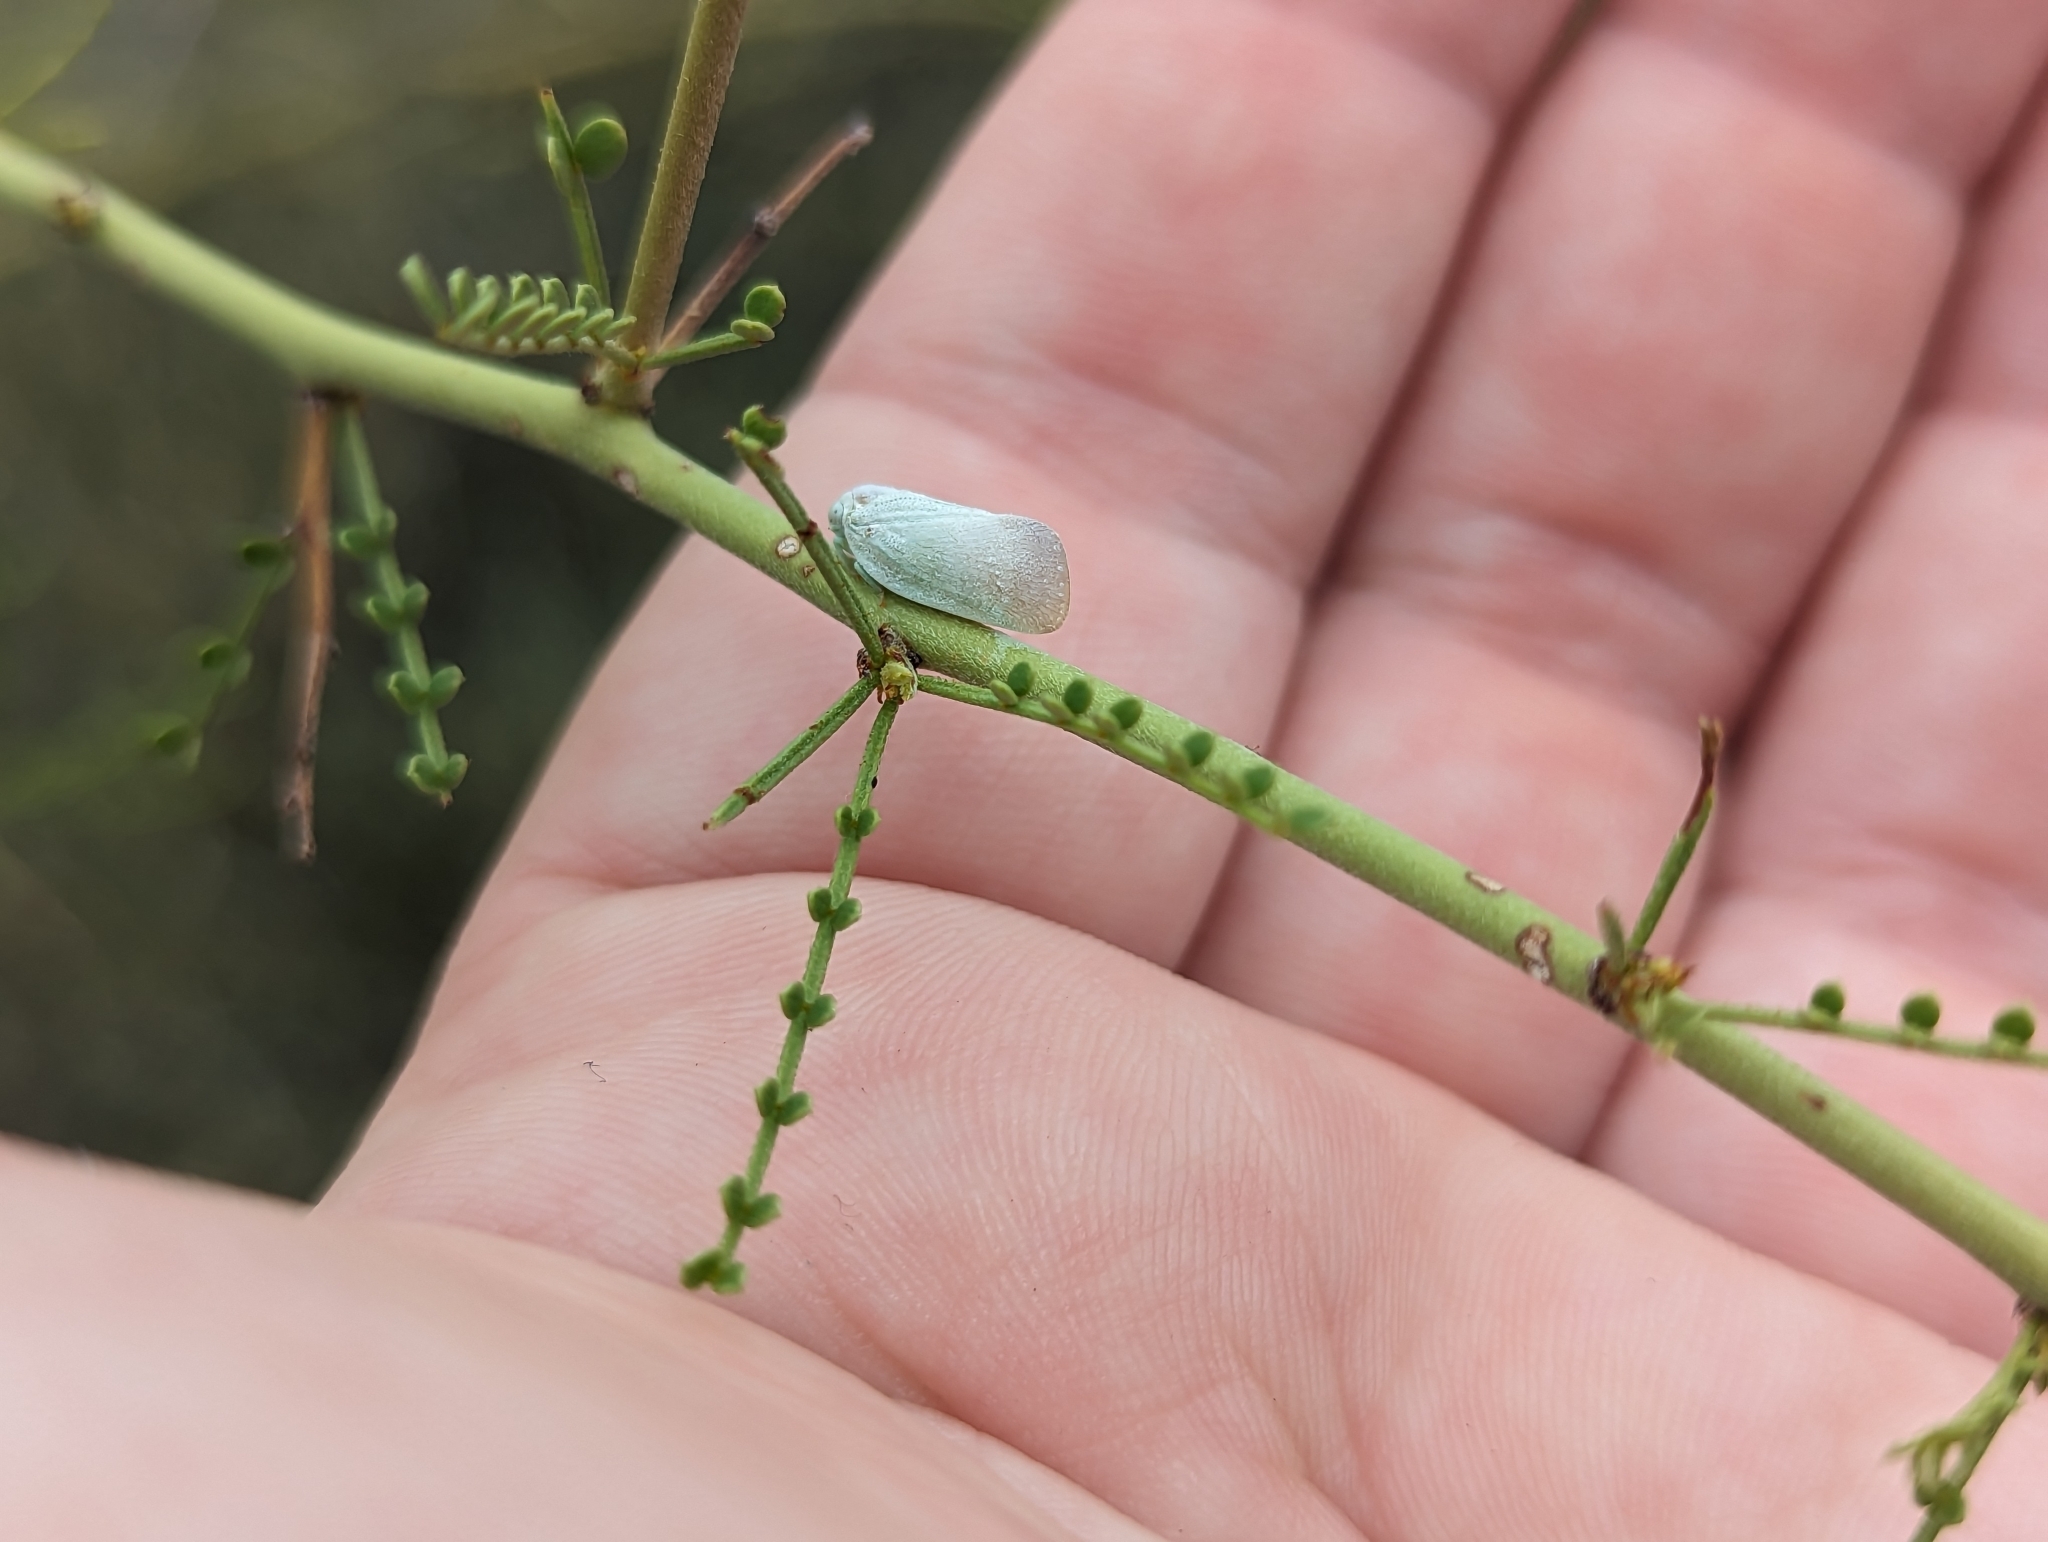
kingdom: Animalia
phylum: Arthropoda
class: Insecta
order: Hemiptera
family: Flatidae
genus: Flatormenis
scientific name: Flatormenis saucia
